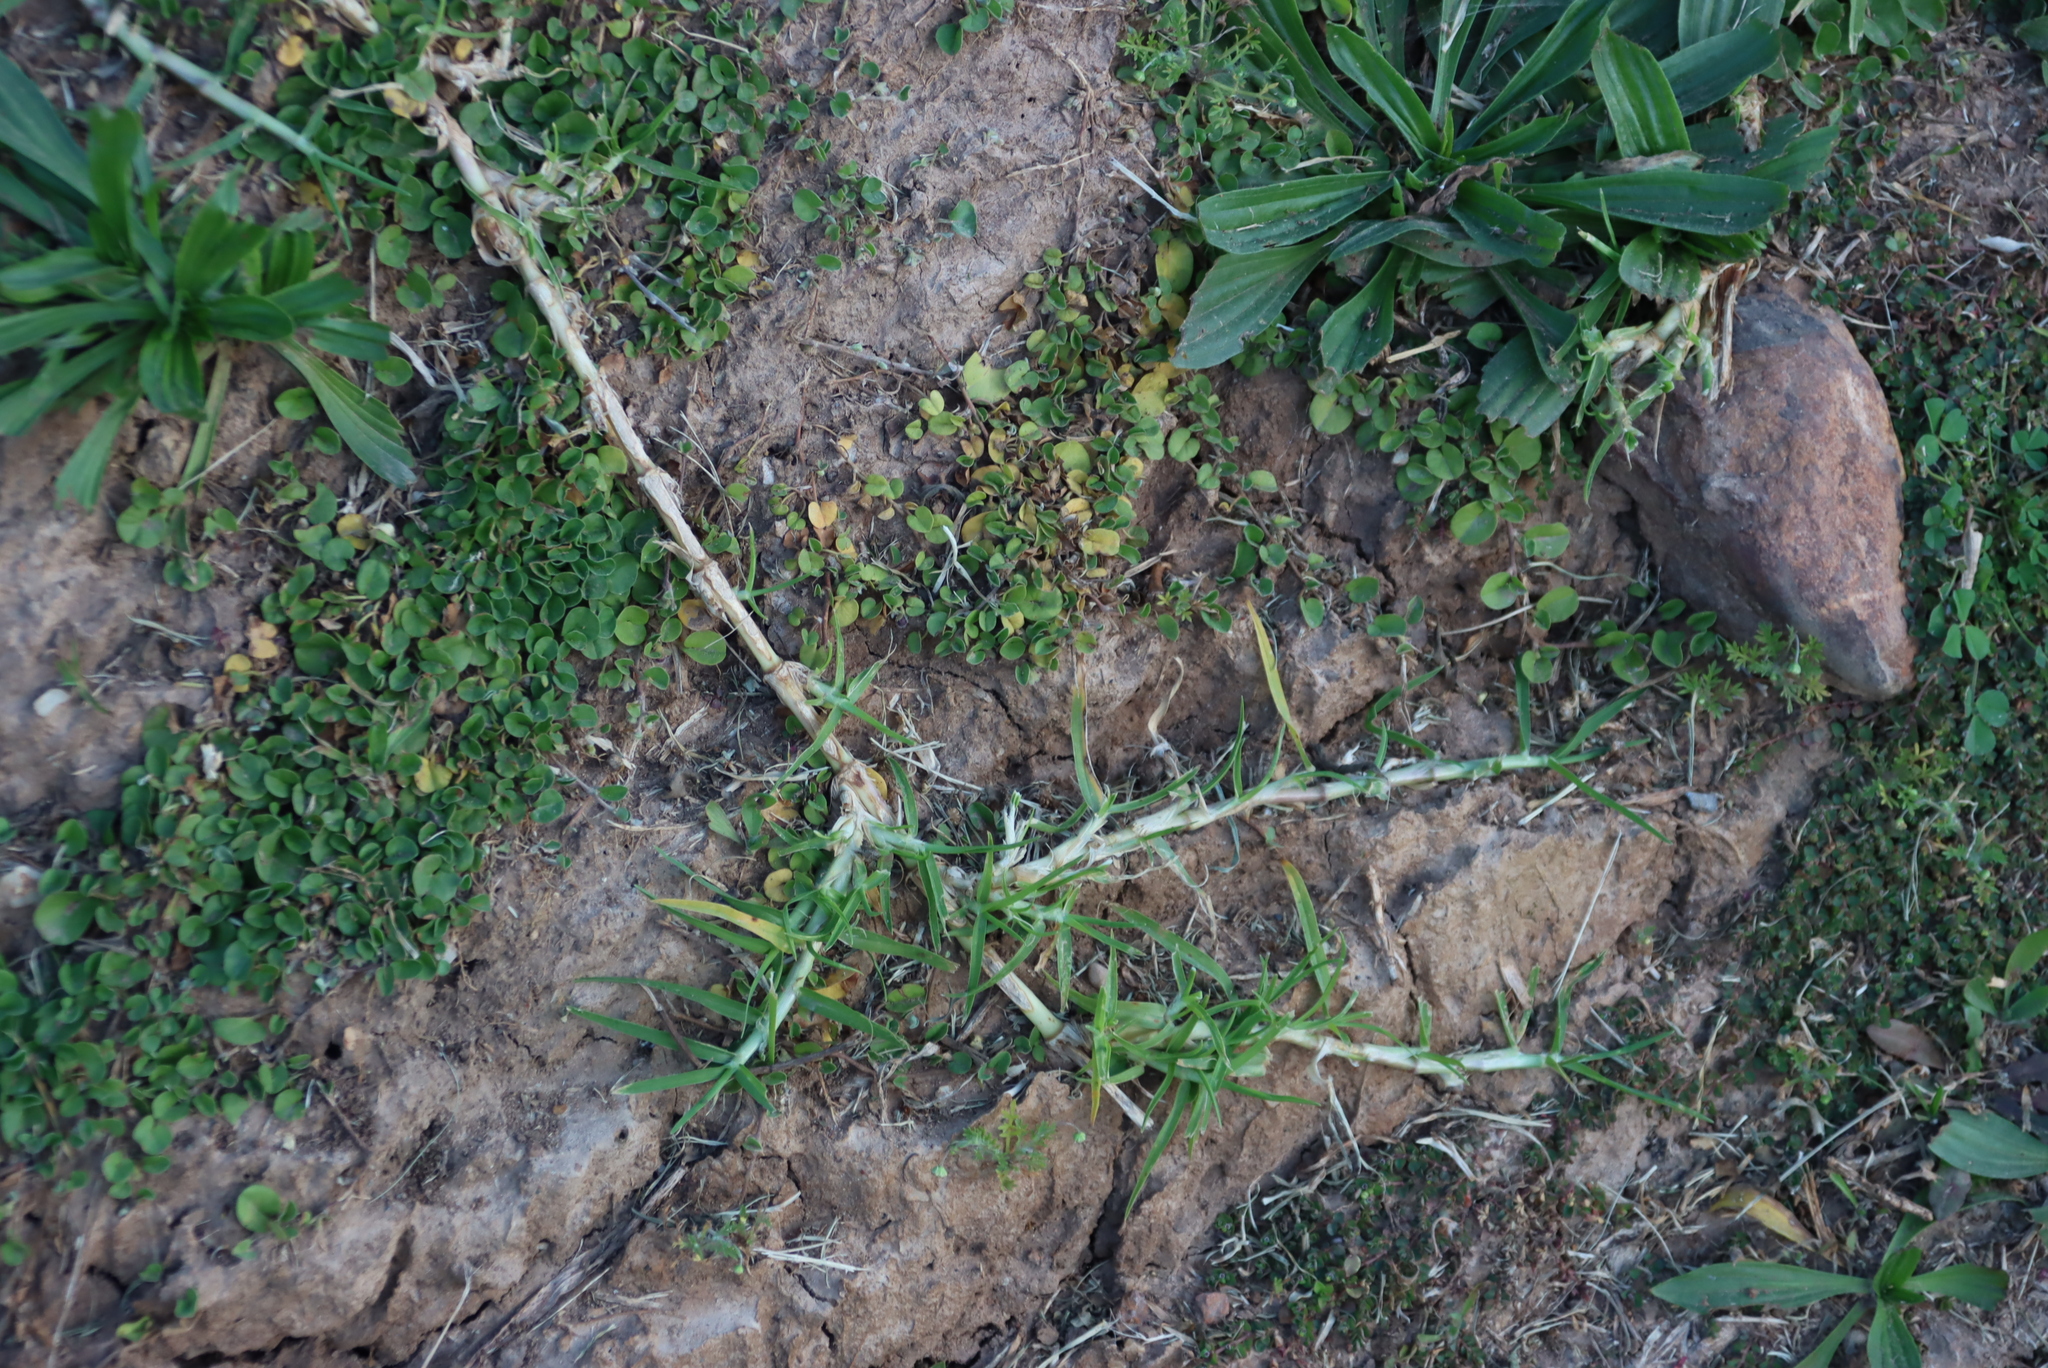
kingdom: Plantae
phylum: Tracheophyta
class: Liliopsida
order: Poales
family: Poaceae
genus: Cenchrus
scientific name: Cenchrus clandestinus
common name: Kikuyugrass
